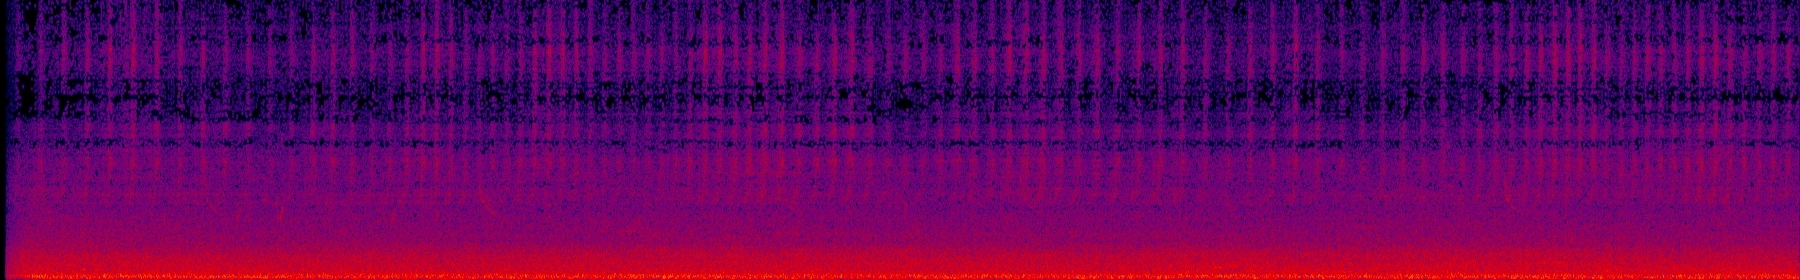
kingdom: Animalia
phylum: Arthropoda
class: Insecta
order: Hemiptera
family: Cicadidae
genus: Cryptotympana
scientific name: Cryptotympana takasagona
